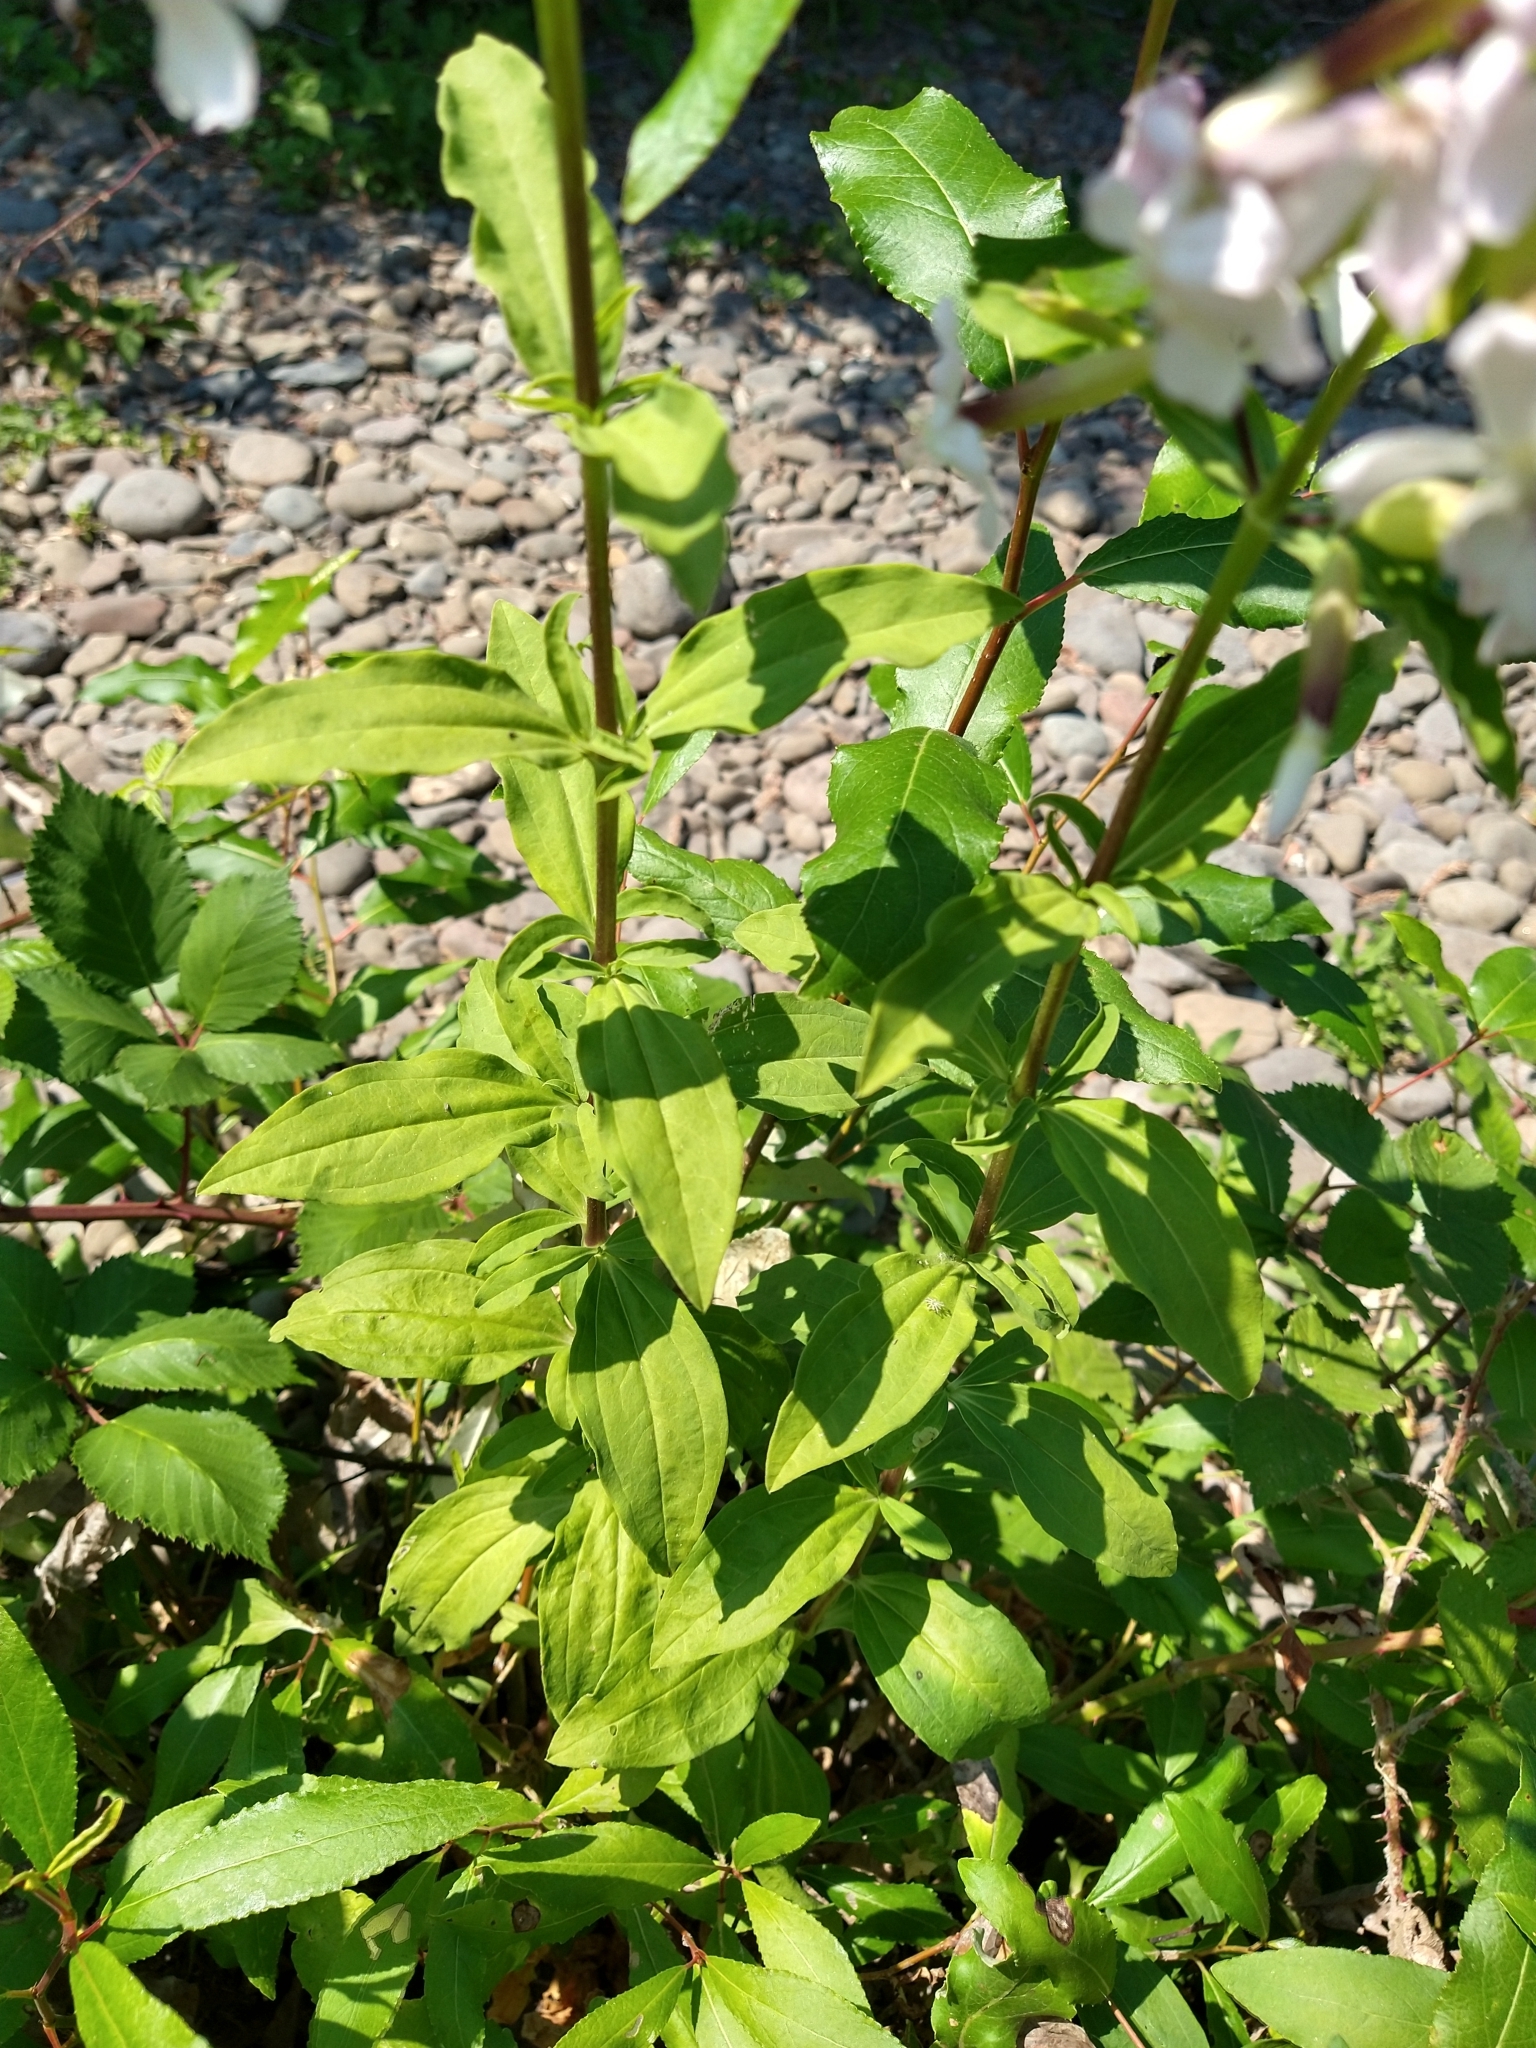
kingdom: Plantae
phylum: Tracheophyta
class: Magnoliopsida
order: Caryophyllales
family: Caryophyllaceae
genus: Saponaria
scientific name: Saponaria officinalis
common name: Soapwort
